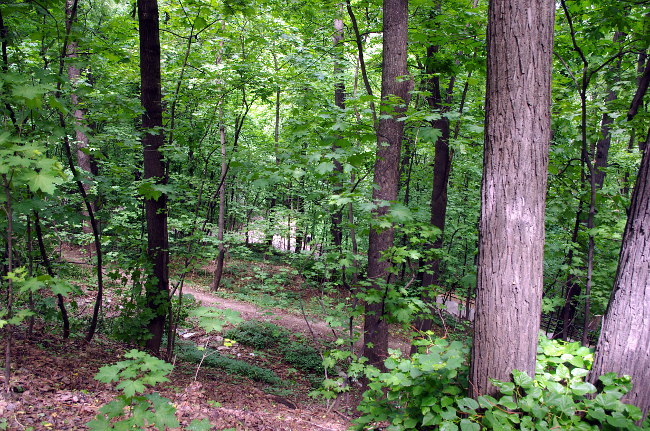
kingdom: Plantae
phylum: Tracheophyta
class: Magnoliopsida
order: Sapindales
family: Sapindaceae
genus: Acer
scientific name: Acer platanoides
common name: Norway maple
